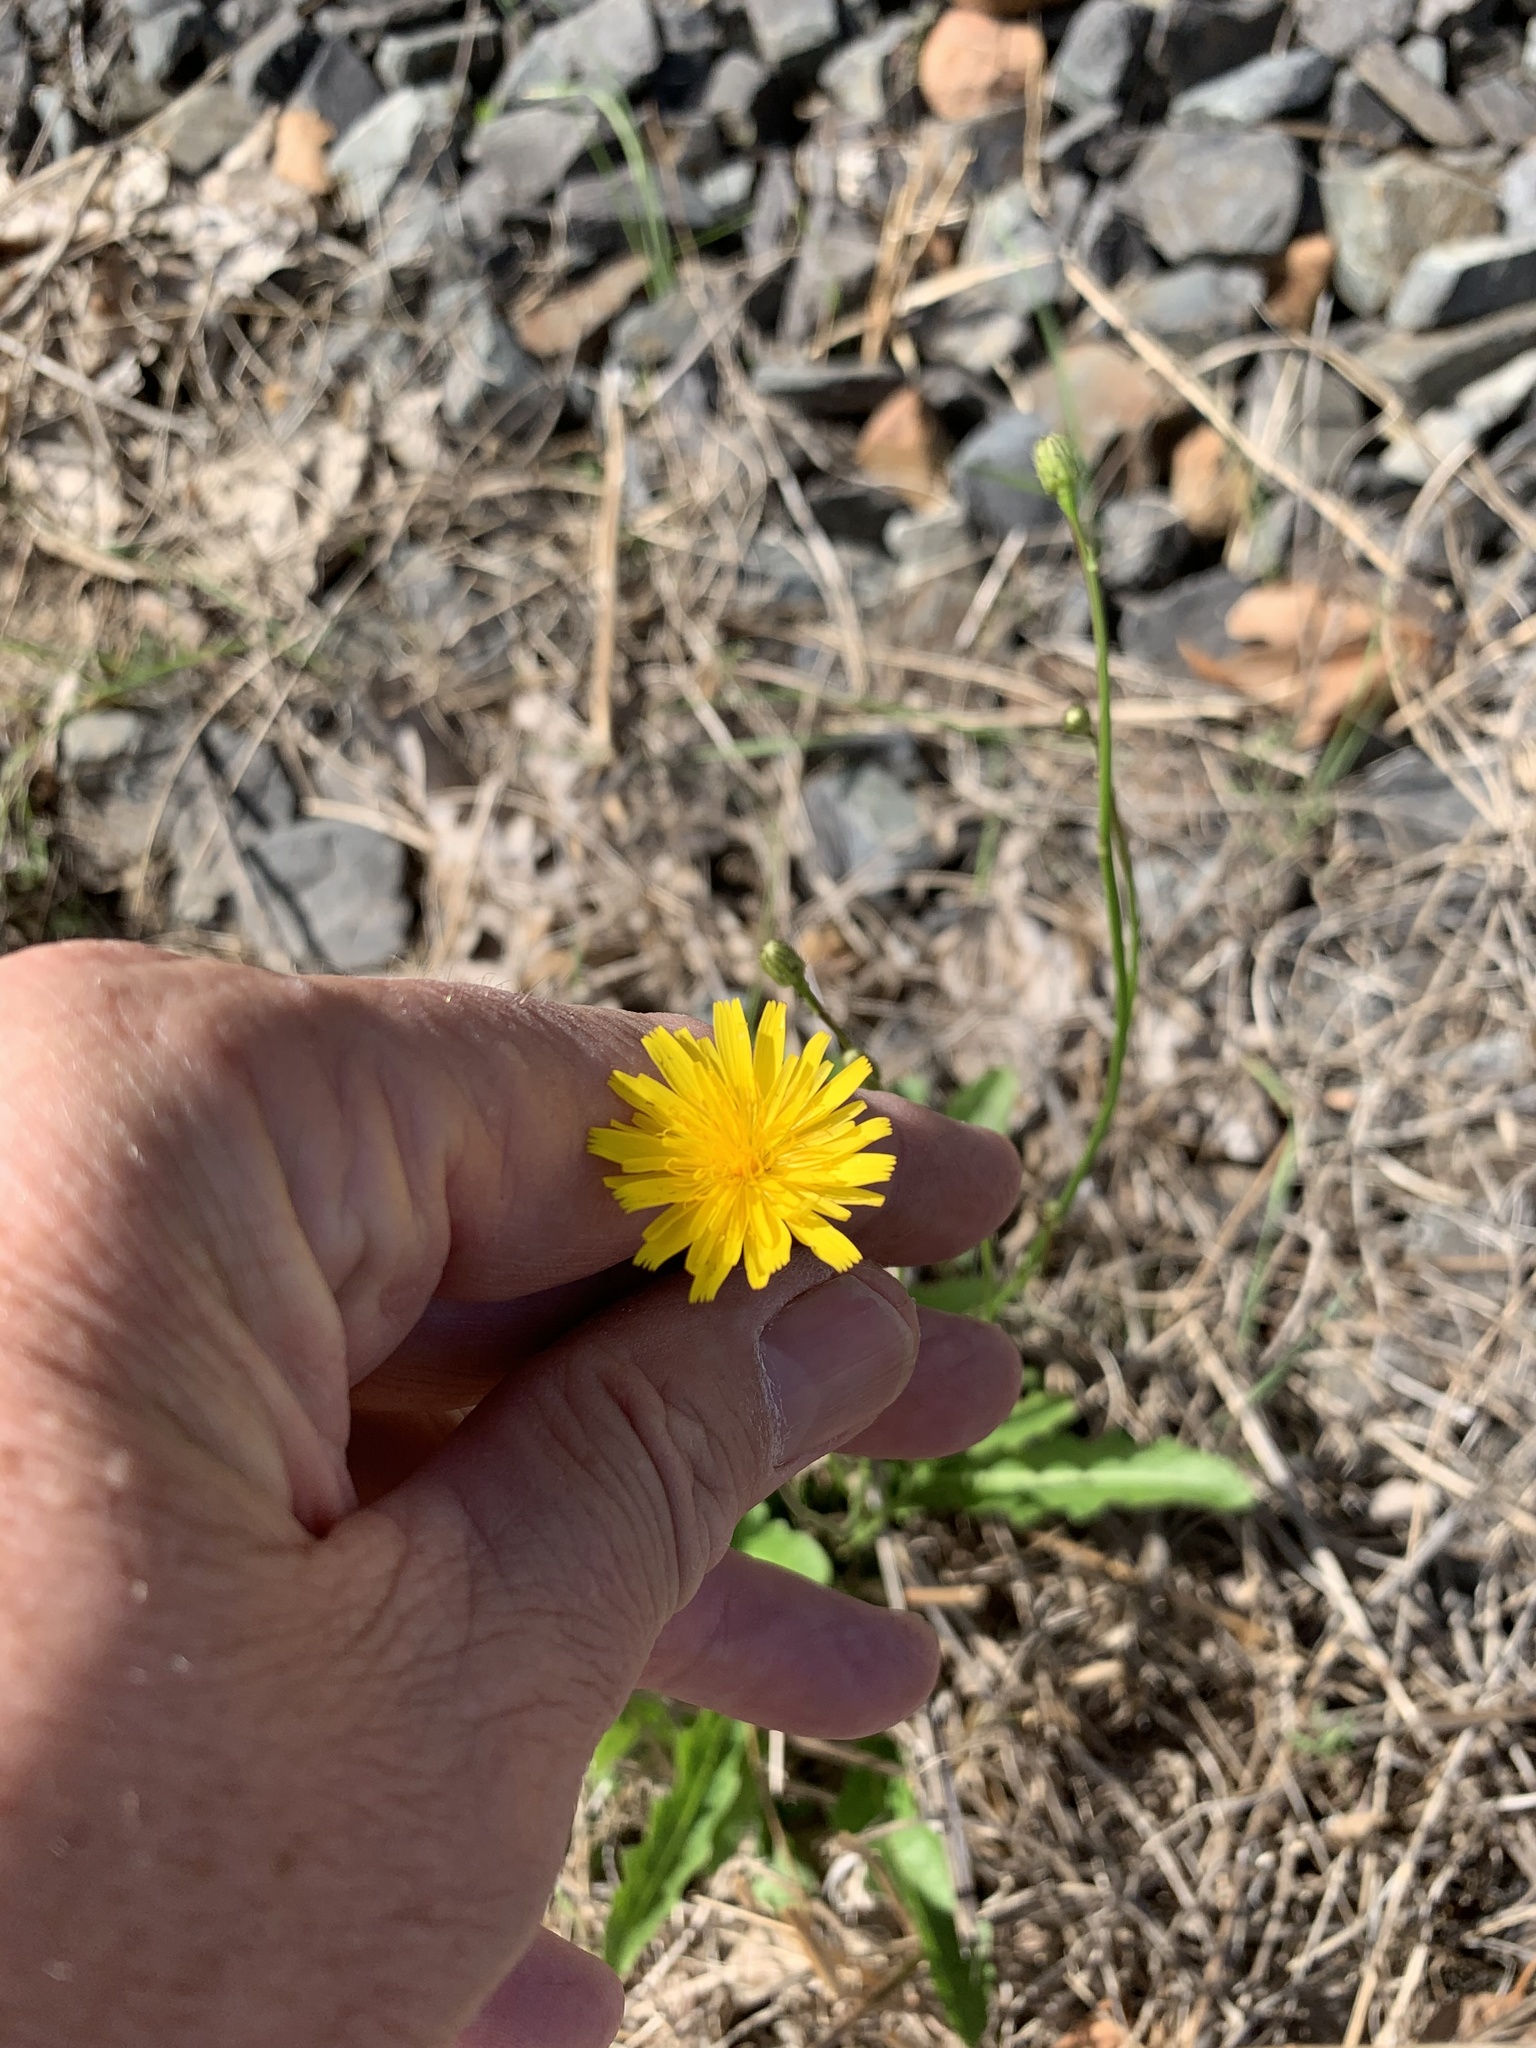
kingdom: Plantae
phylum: Tracheophyta
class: Magnoliopsida
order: Asterales
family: Asteraceae
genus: Hypochaeris
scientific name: Hypochaeris radicata
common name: Flatweed
